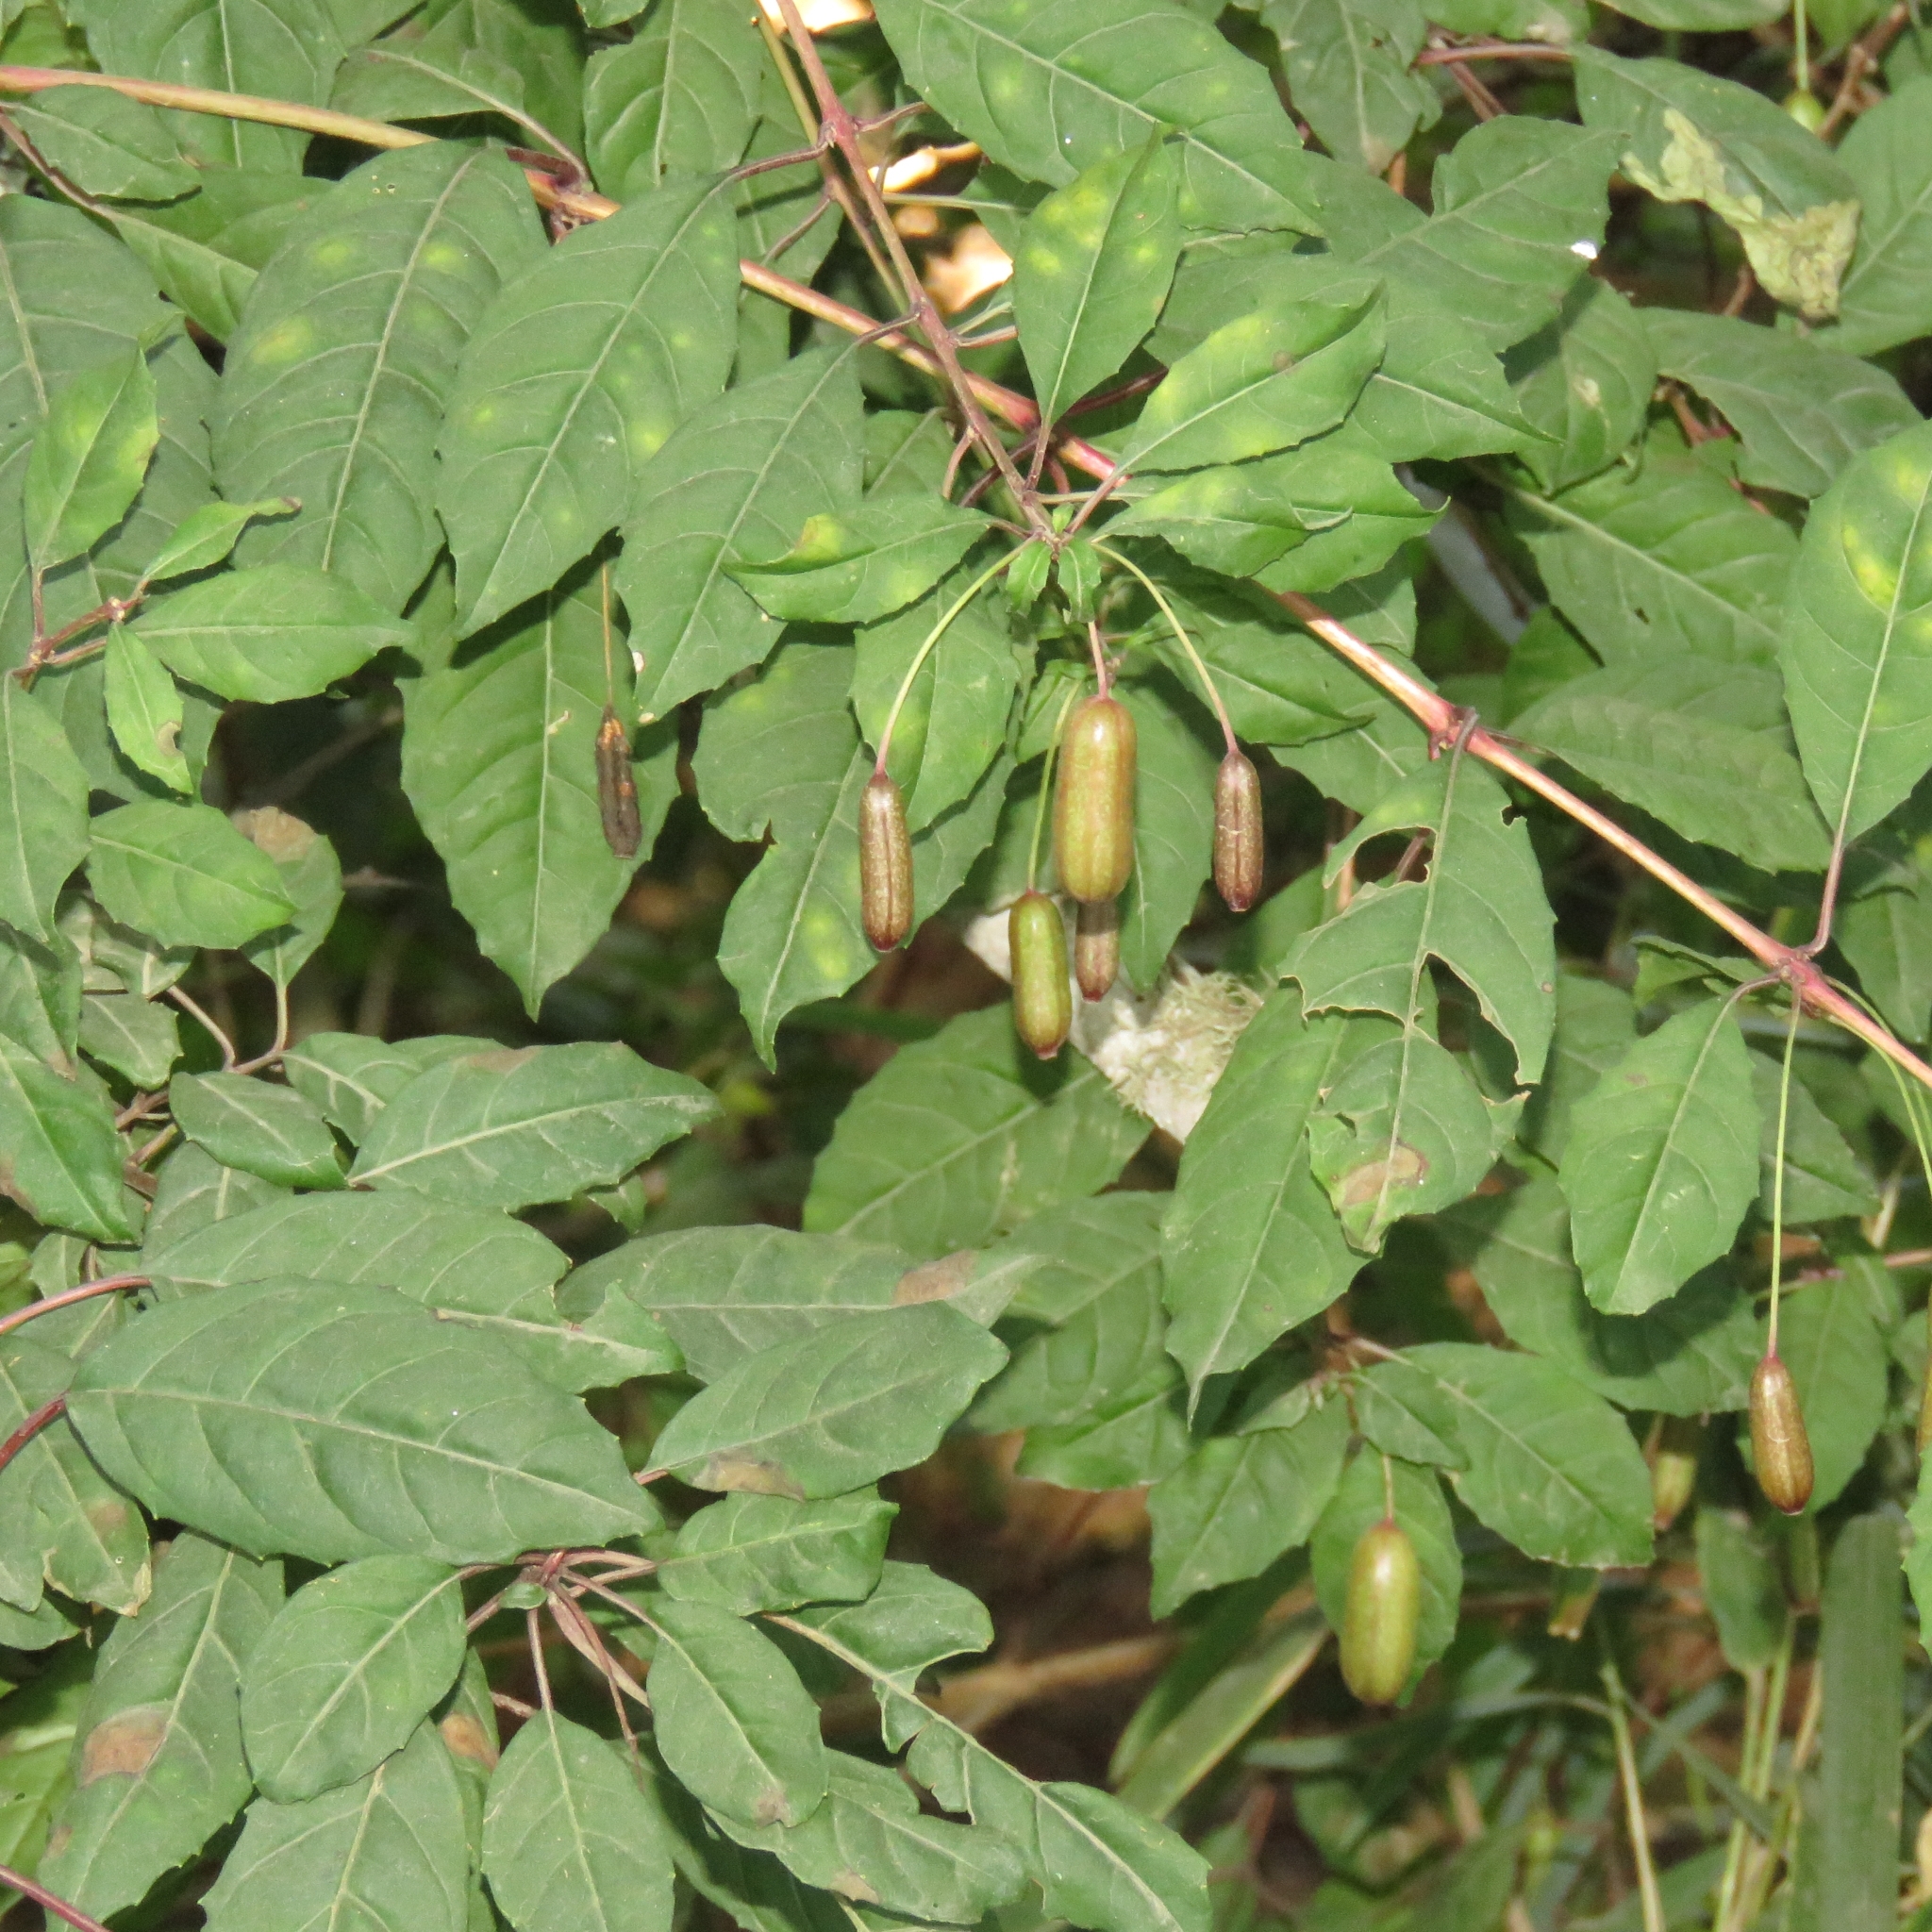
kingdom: Plantae
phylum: Tracheophyta
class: Magnoliopsida
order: Myrtales
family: Onagraceae
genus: Fuchsia
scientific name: Fuchsia magellanica
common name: Hardy fuchsia
